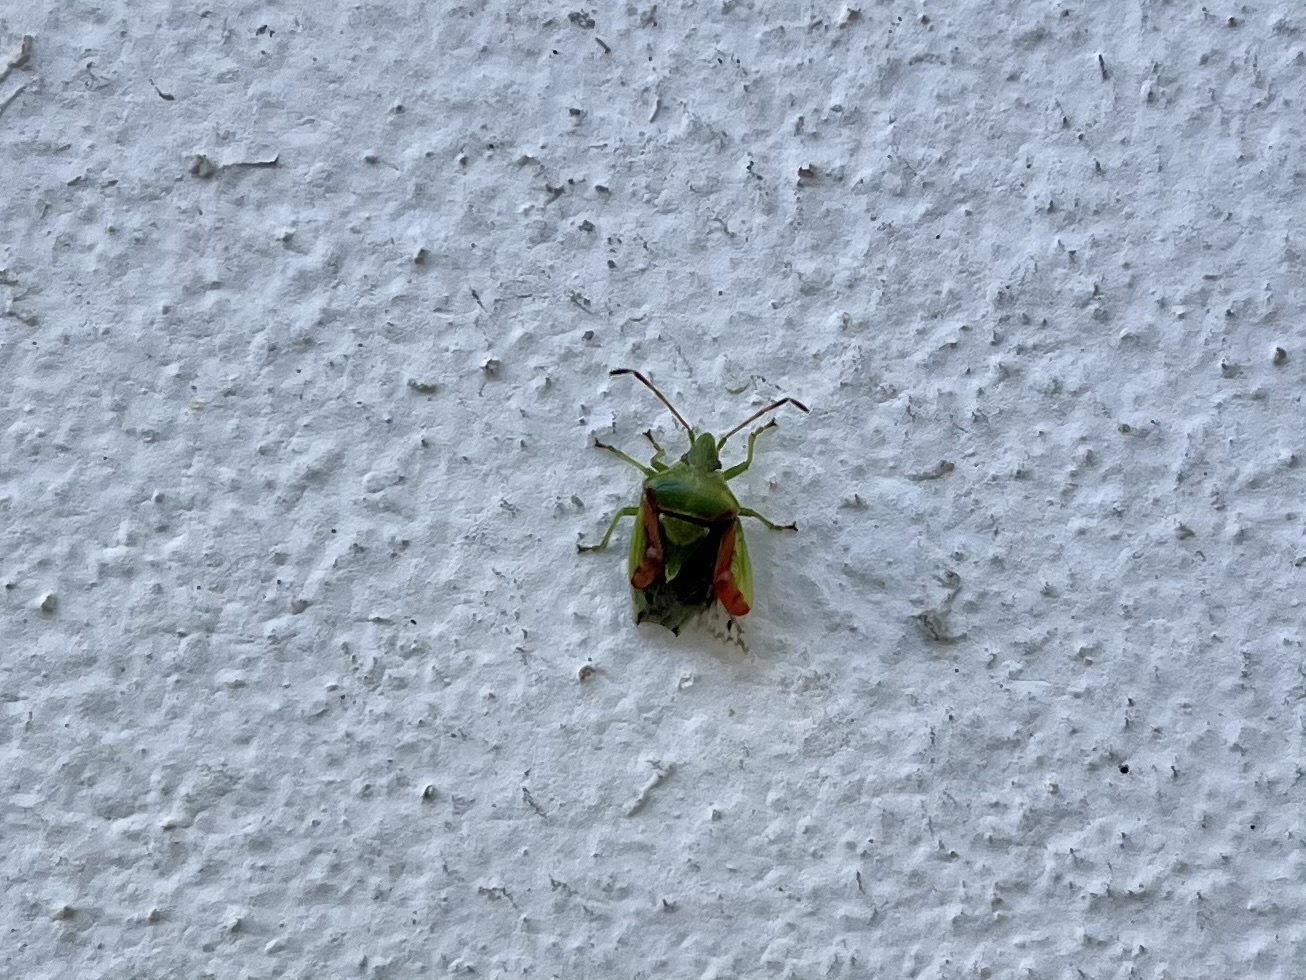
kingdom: Animalia
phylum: Arthropoda
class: Insecta
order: Hemiptera
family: Acanthosomatidae
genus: Cyphostethus
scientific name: Cyphostethus tristriatus
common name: Juniper shieldbug
